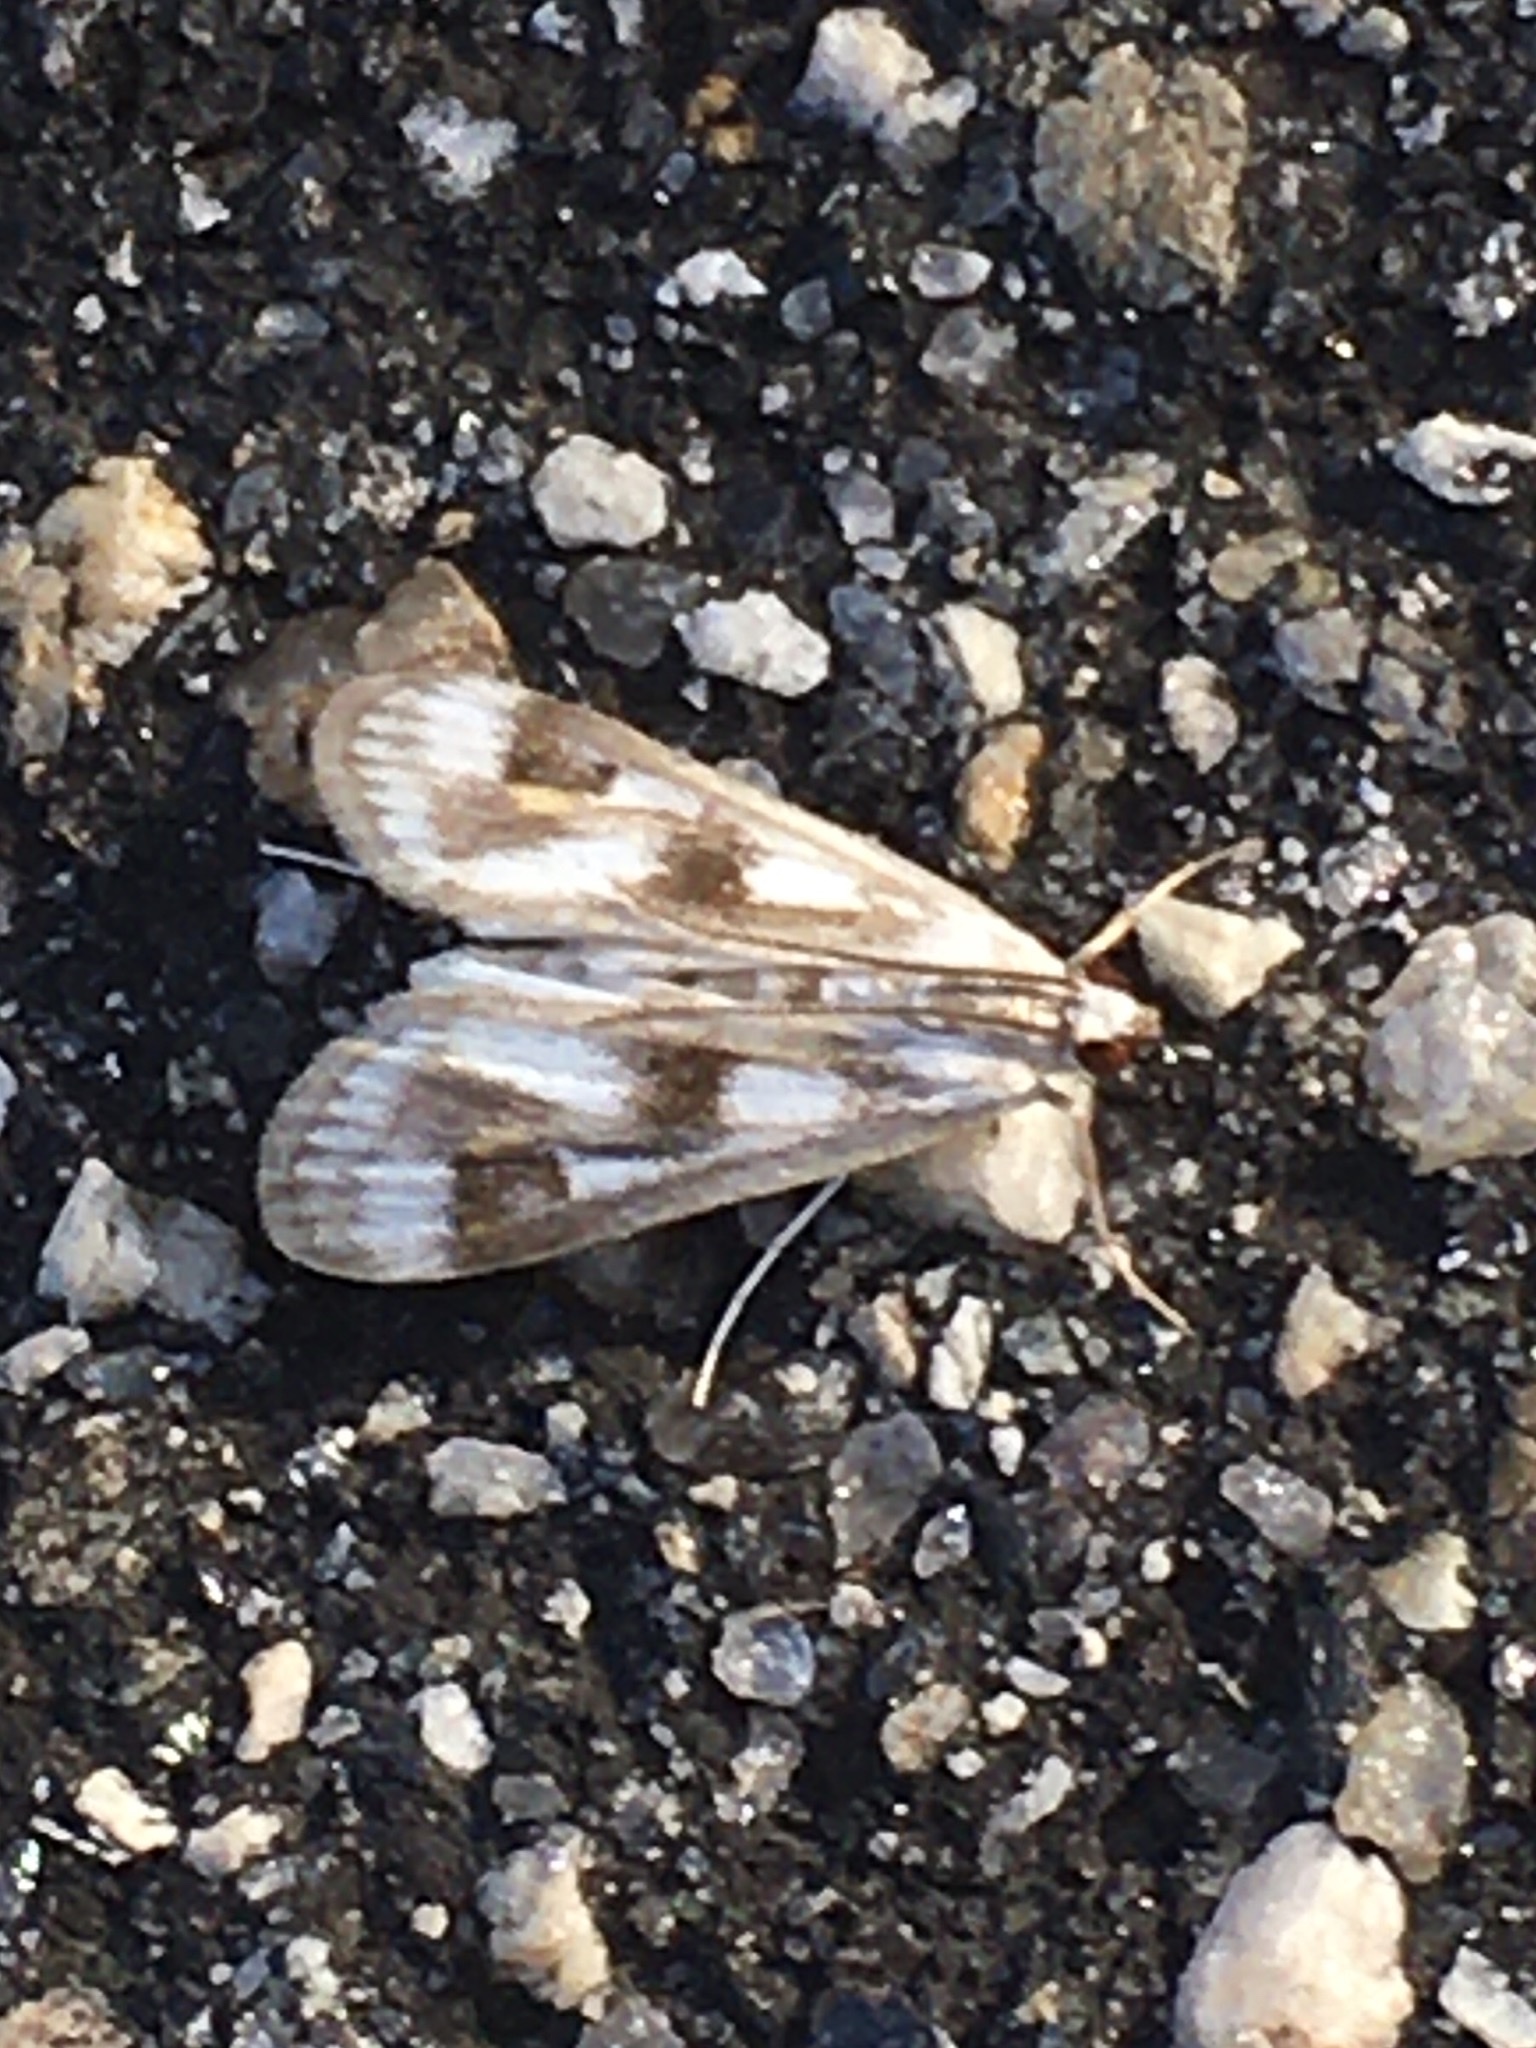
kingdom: Animalia
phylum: Arthropoda
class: Insecta
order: Lepidoptera
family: Crambidae
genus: Parapoynx
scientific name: Parapoynx maculalis
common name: Polymorphic pondweed moth
